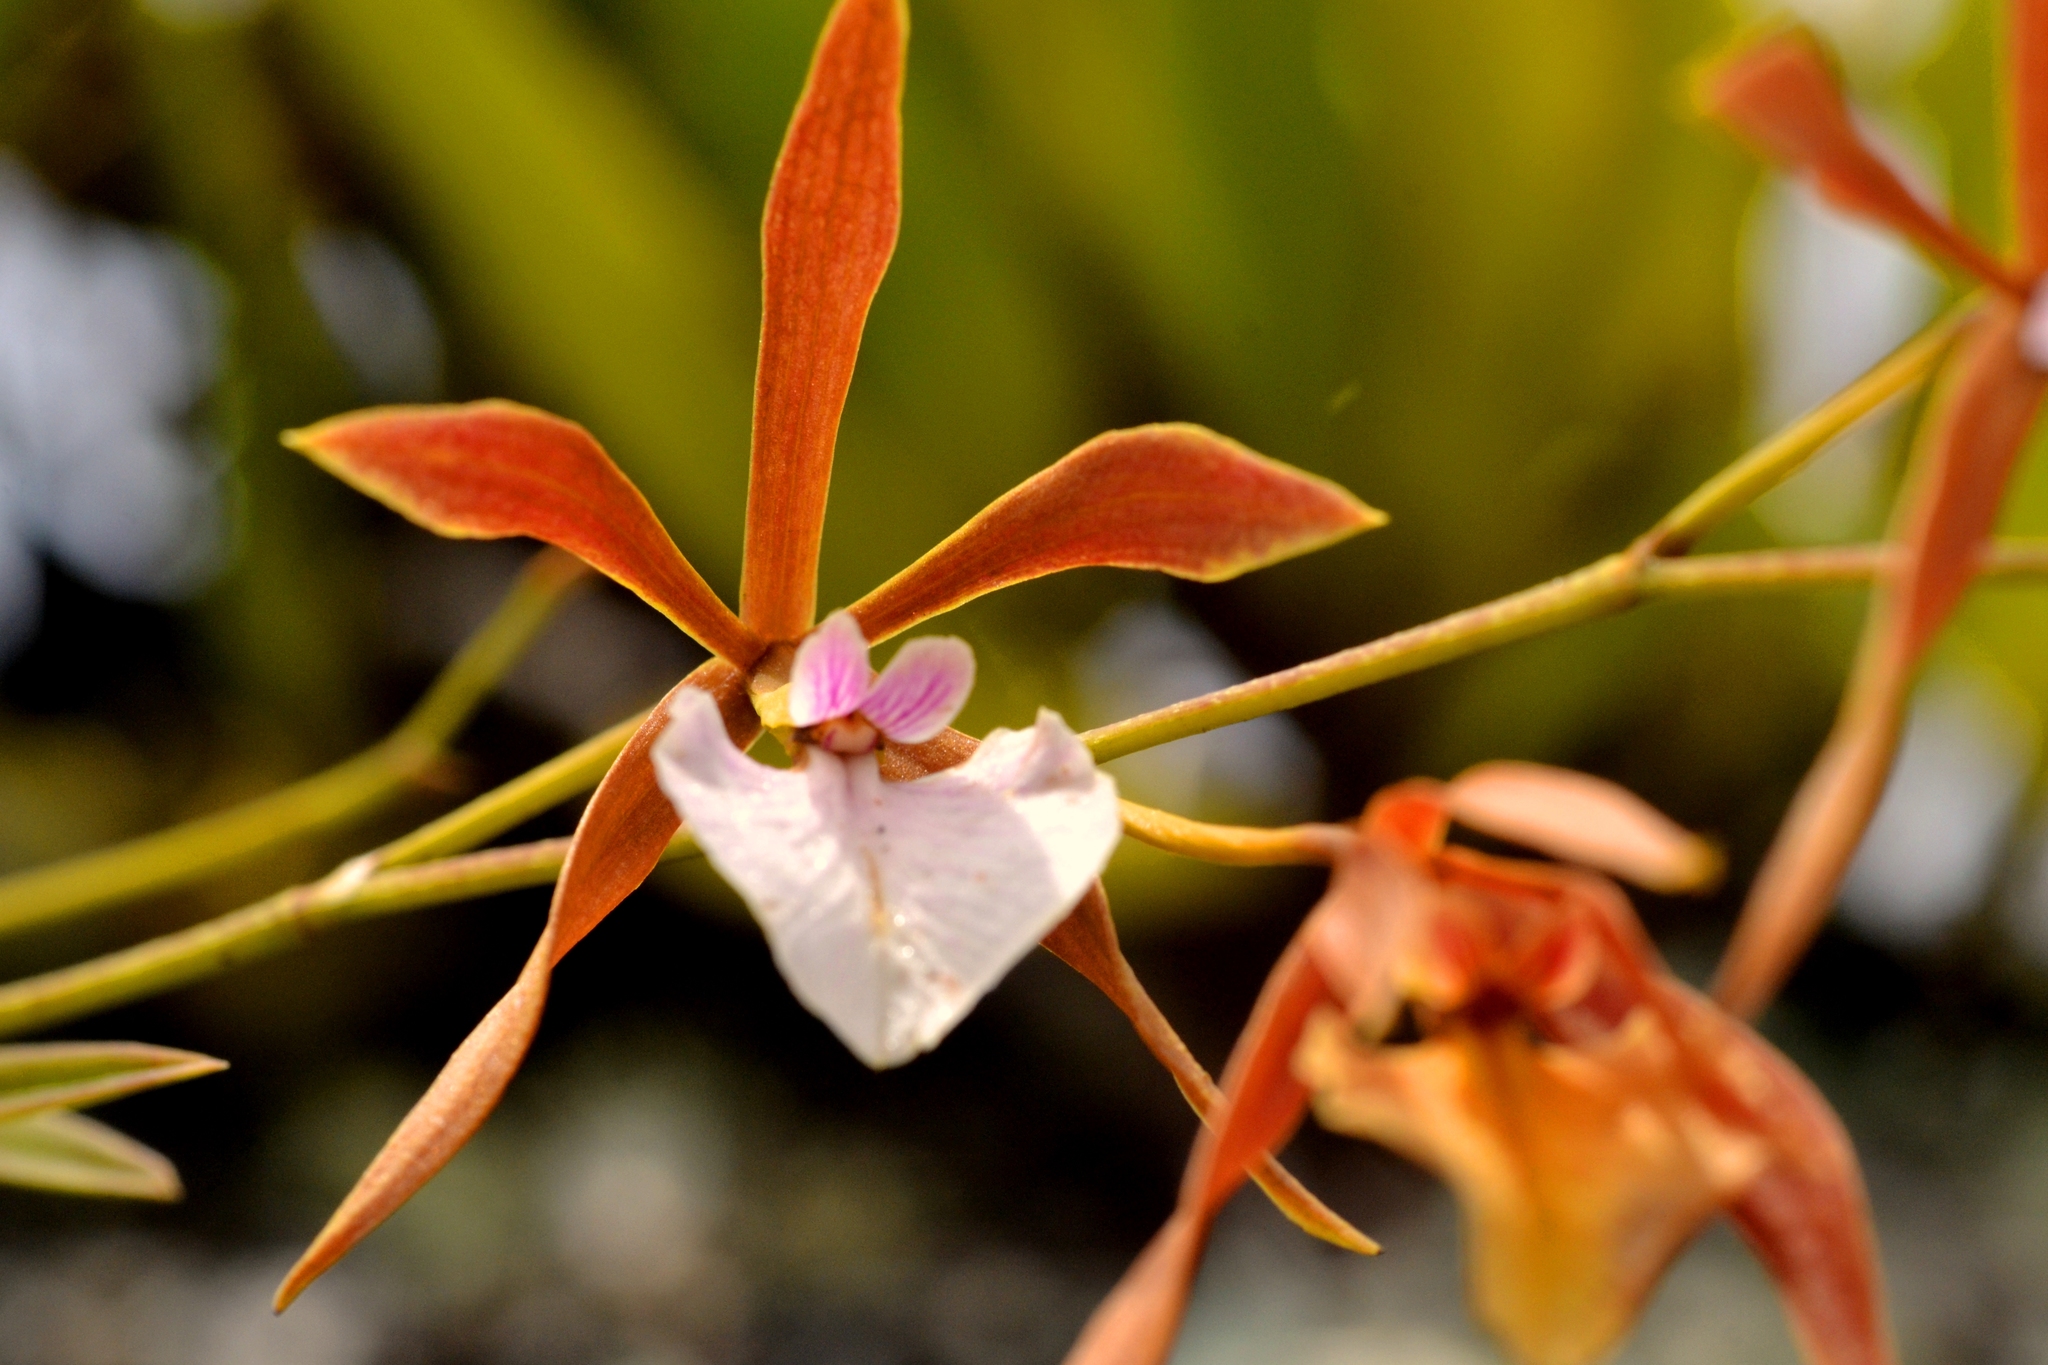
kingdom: Plantae
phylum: Tracheophyta
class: Liliopsida
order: Asparagales
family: Orchidaceae
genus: Encyclia
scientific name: Encyclia bractescens
